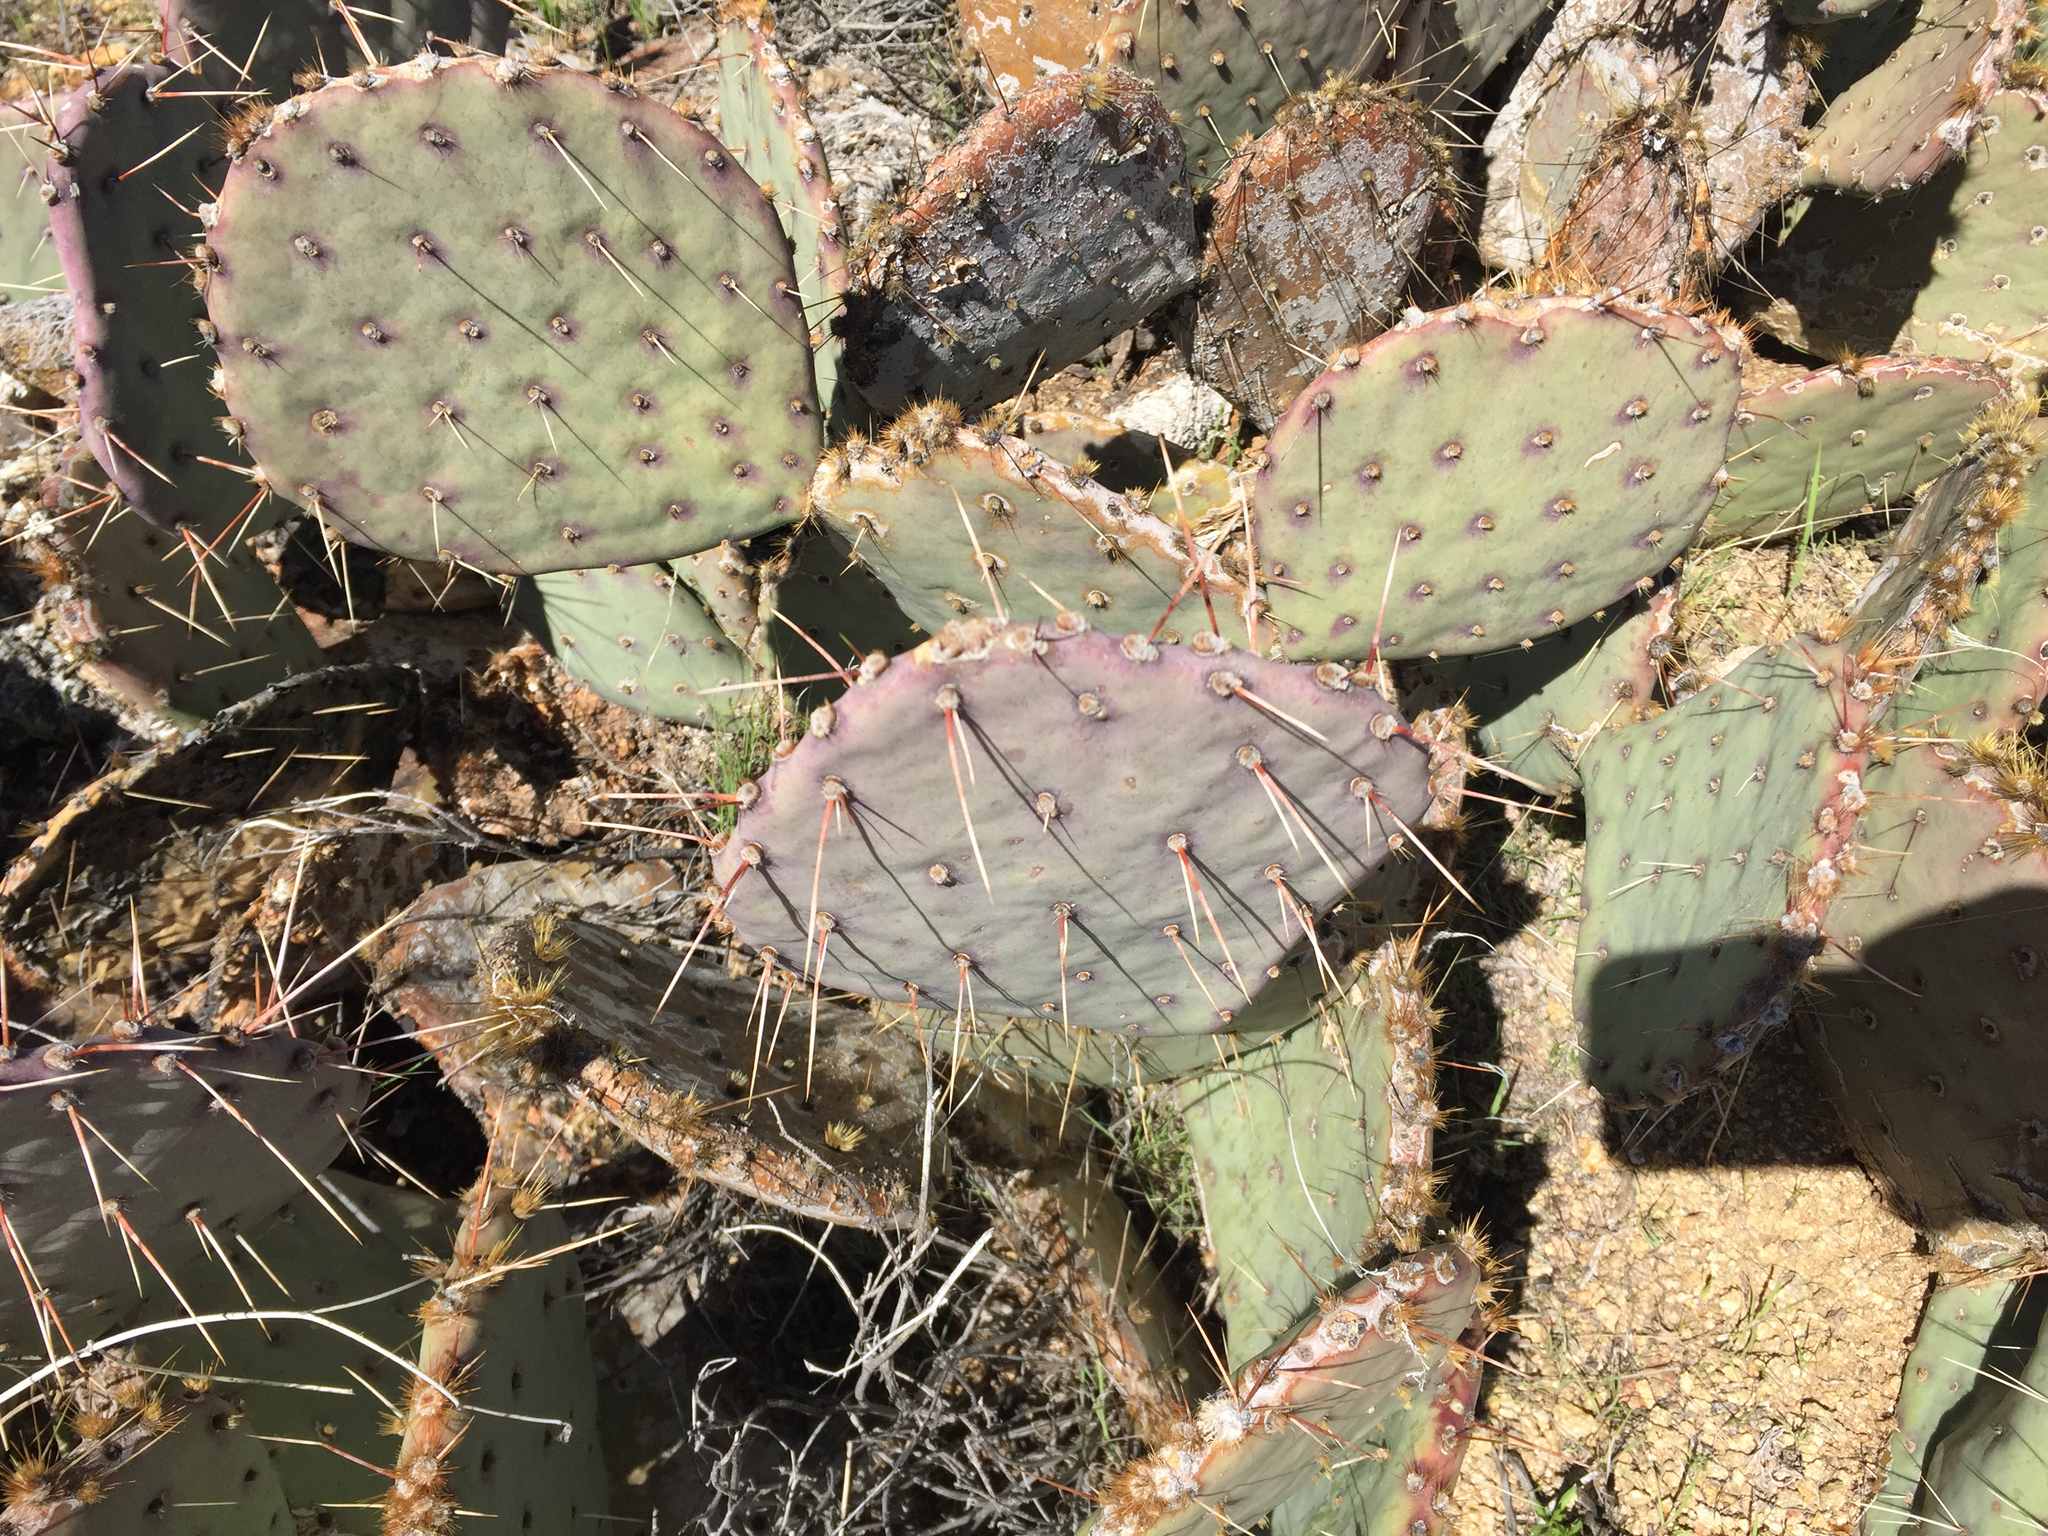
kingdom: Plantae
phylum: Tracheophyta
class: Magnoliopsida
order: Caryophyllales
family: Cactaceae
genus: Opuntia
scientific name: Opuntia phaeacantha
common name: New mexico prickly-pear
